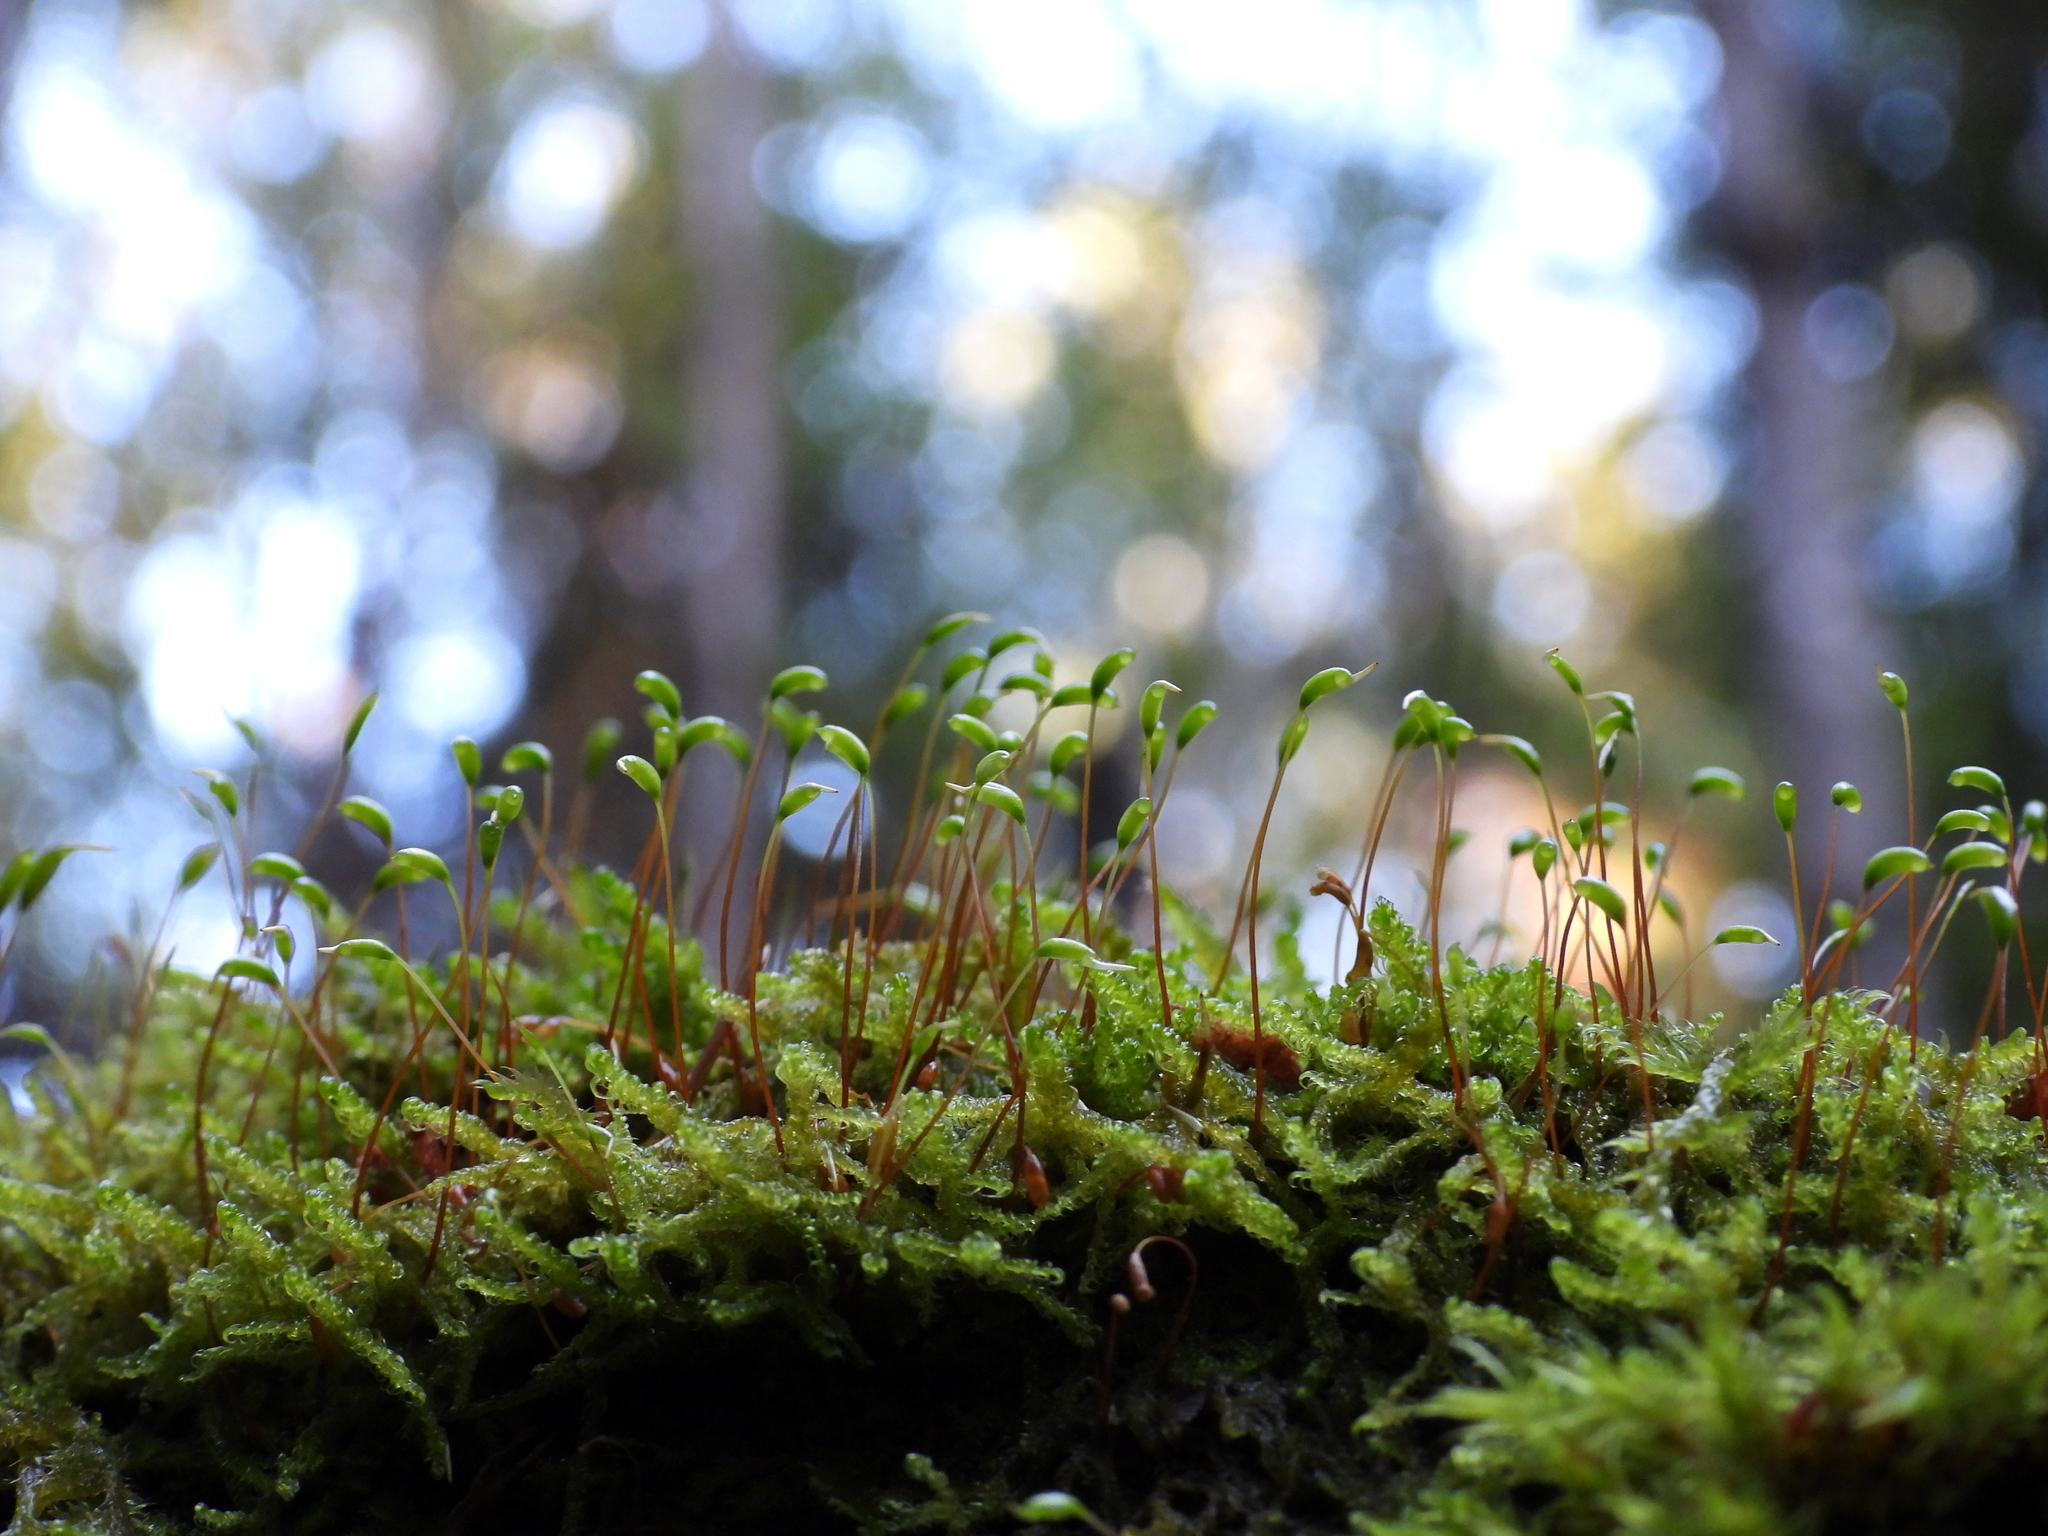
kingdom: Plantae
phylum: Bryophyta
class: Bryopsida
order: Hypnales
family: Hypnaceae
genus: Hypnum
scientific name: Hypnum cupressiforme
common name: Cypress-leaved plait-moss
